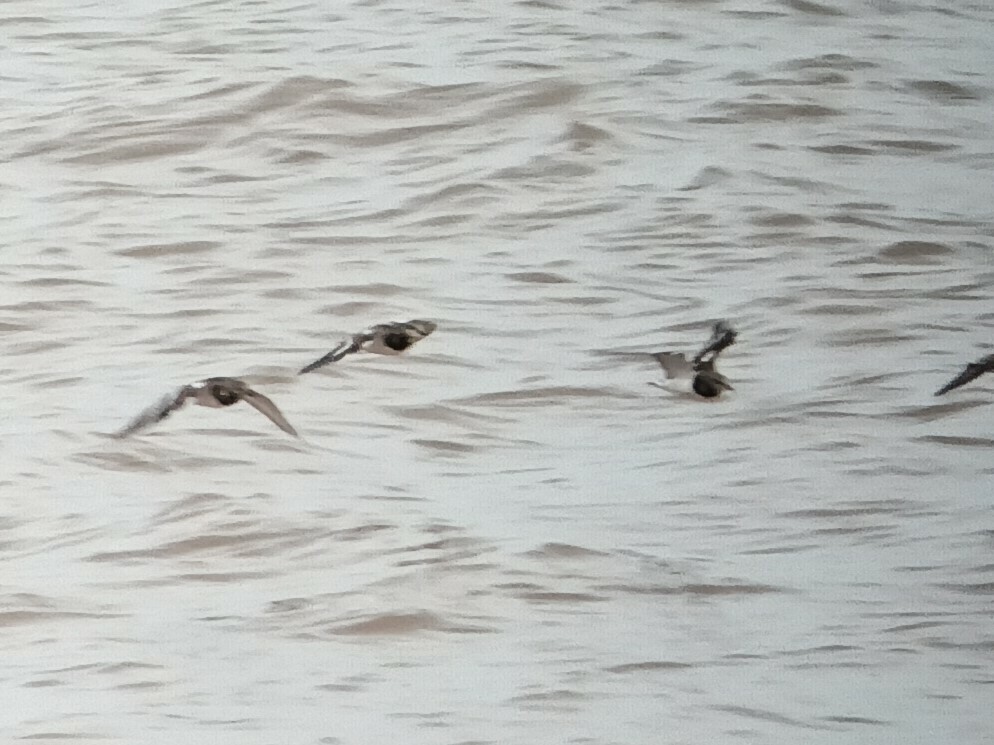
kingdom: Animalia
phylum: Chordata
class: Aves
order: Charadriiformes
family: Scolopacidae
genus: Arenaria
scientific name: Arenaria interpres
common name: Ruddy turnstone
